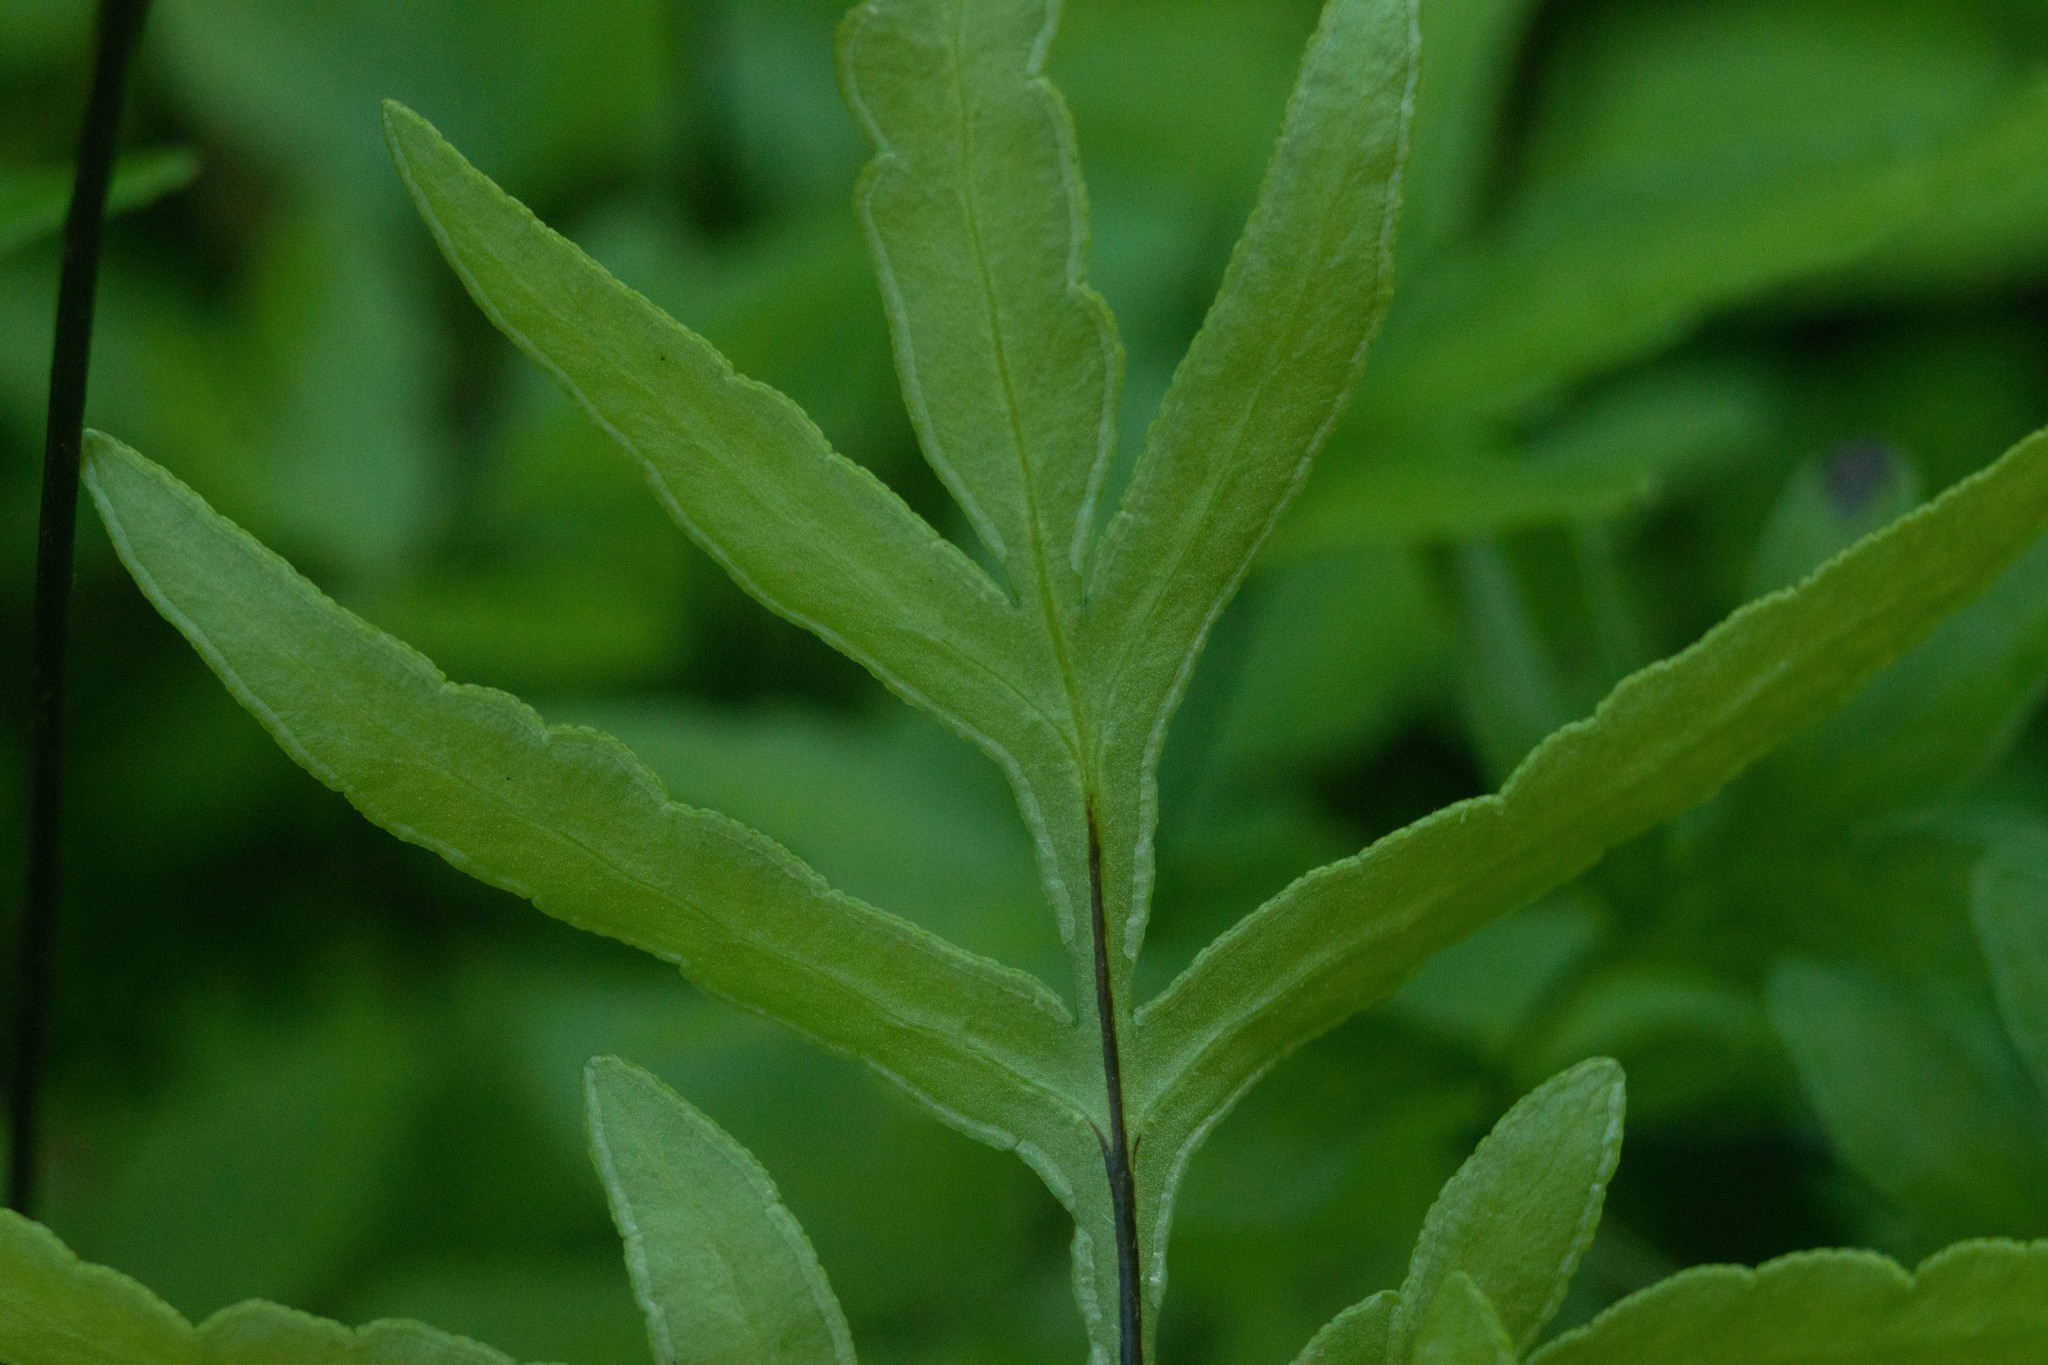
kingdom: Plantae
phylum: Tracheophyta
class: Polypodiopsida
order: Polypodiales
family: Pteridaceae
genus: Doryopteris
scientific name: Doryopteris takeuchii
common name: Takeuch's lipfern
